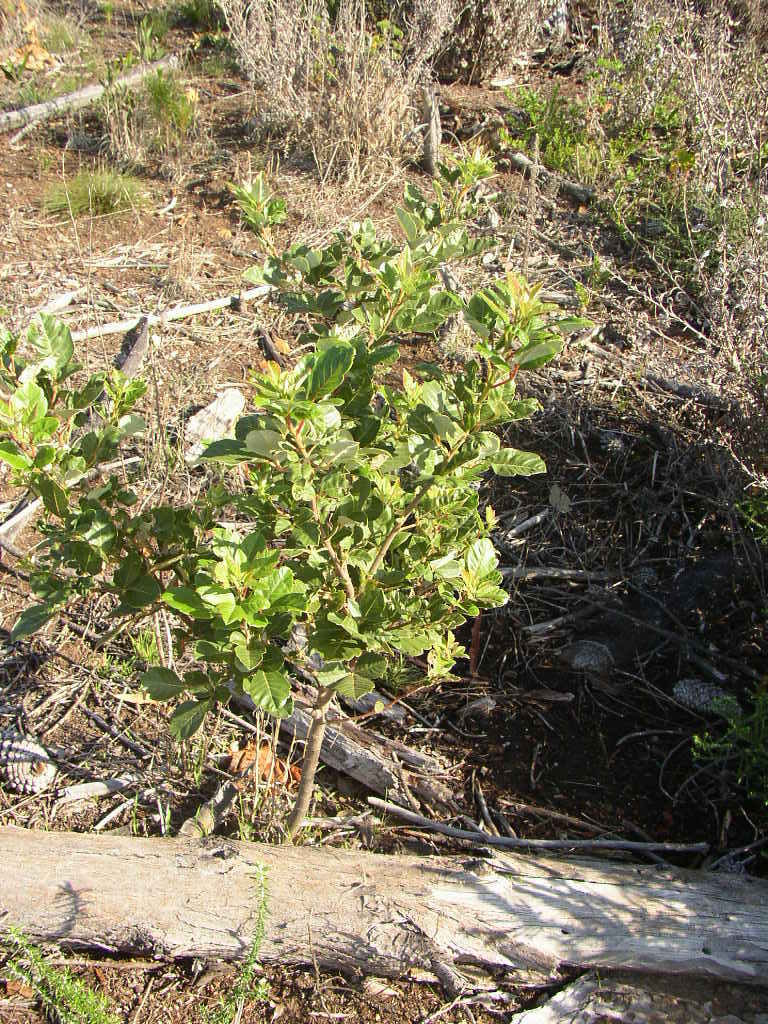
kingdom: Plantae
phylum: Tracheophyta
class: Magnoliopsida
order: Sapindales
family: Anacardiaceae
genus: Searsia
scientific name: Searsia tomentosa
